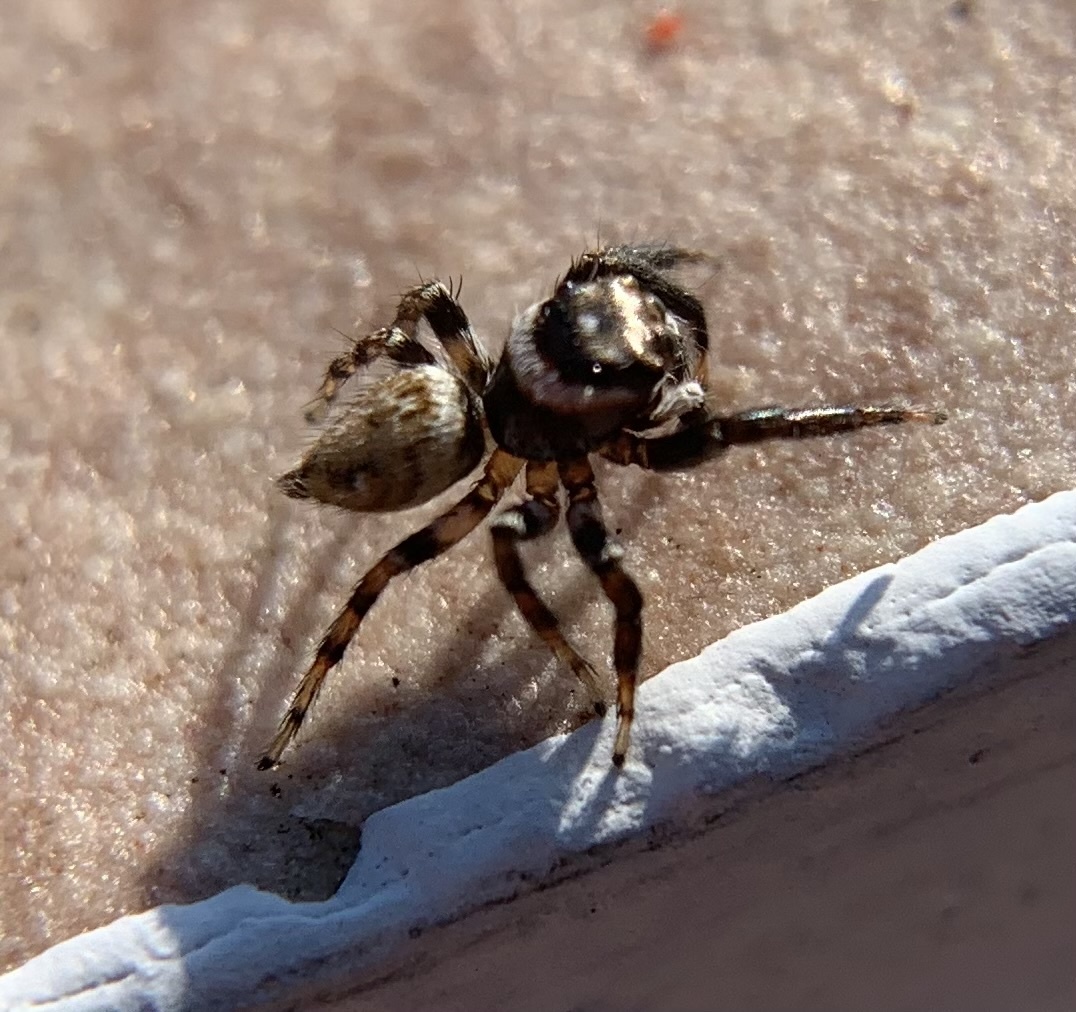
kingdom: Animalia
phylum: Arthropoda
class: Arachnida
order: Araneae
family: Salticidae
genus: Evarcha
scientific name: Evarcha jucunda
